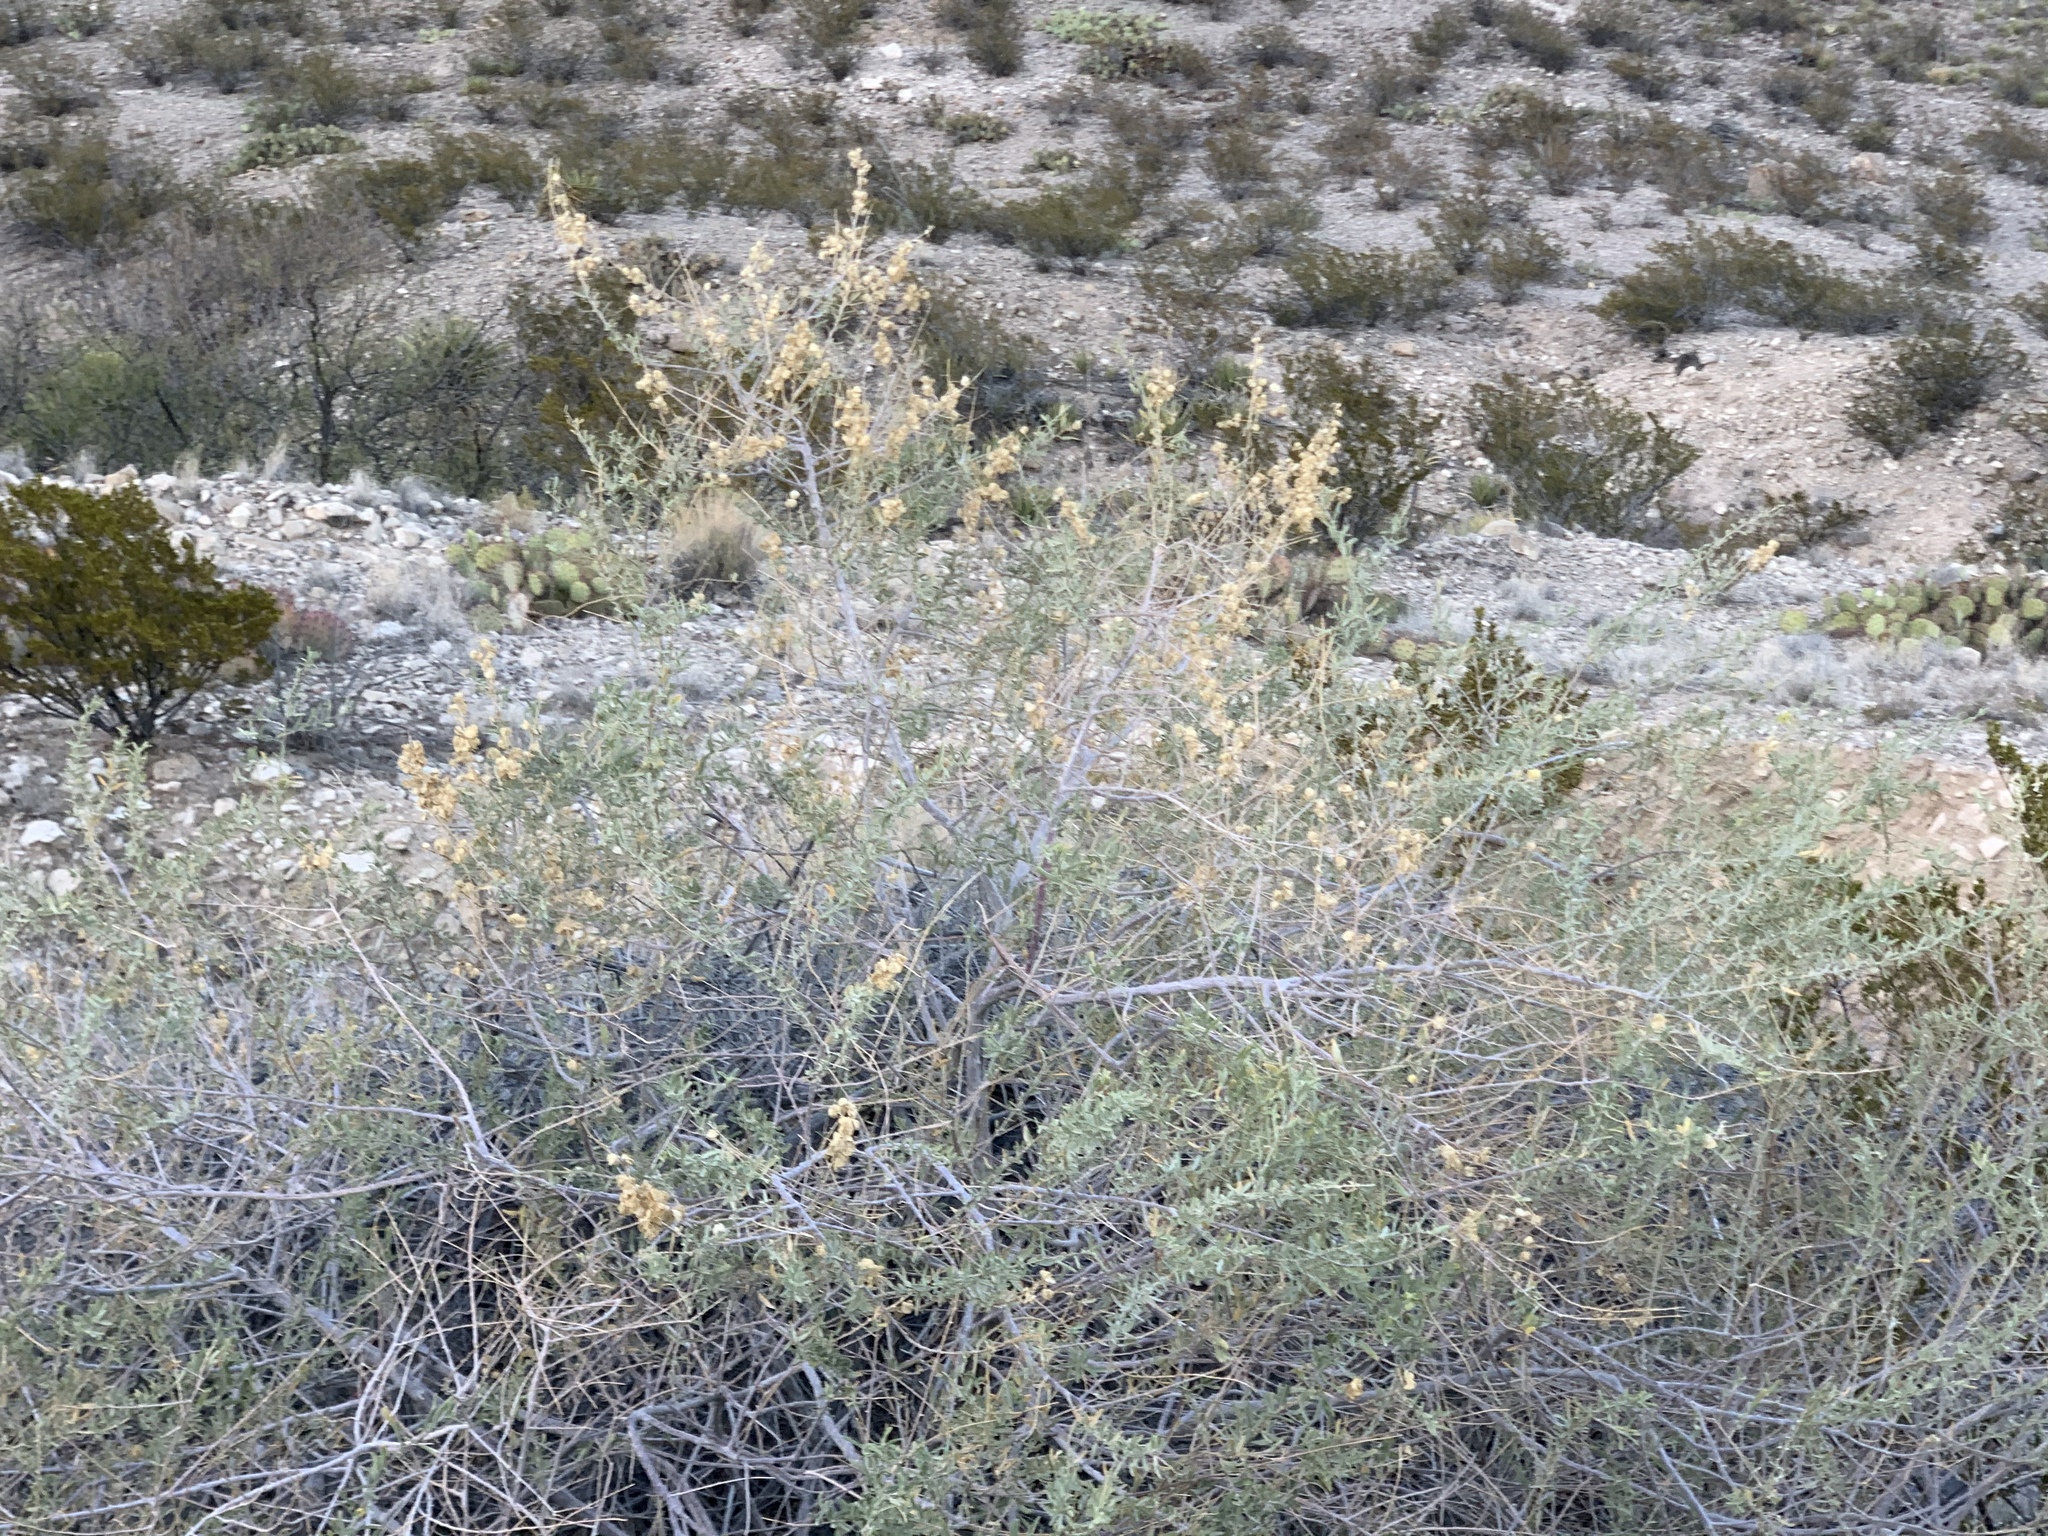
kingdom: Plantae
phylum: Tracheophyta
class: Magnoliopsida
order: Caryophyllales
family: Amaranthaceae
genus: Atriplex
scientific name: Atriplex canescens
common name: Four-wing saltbush
